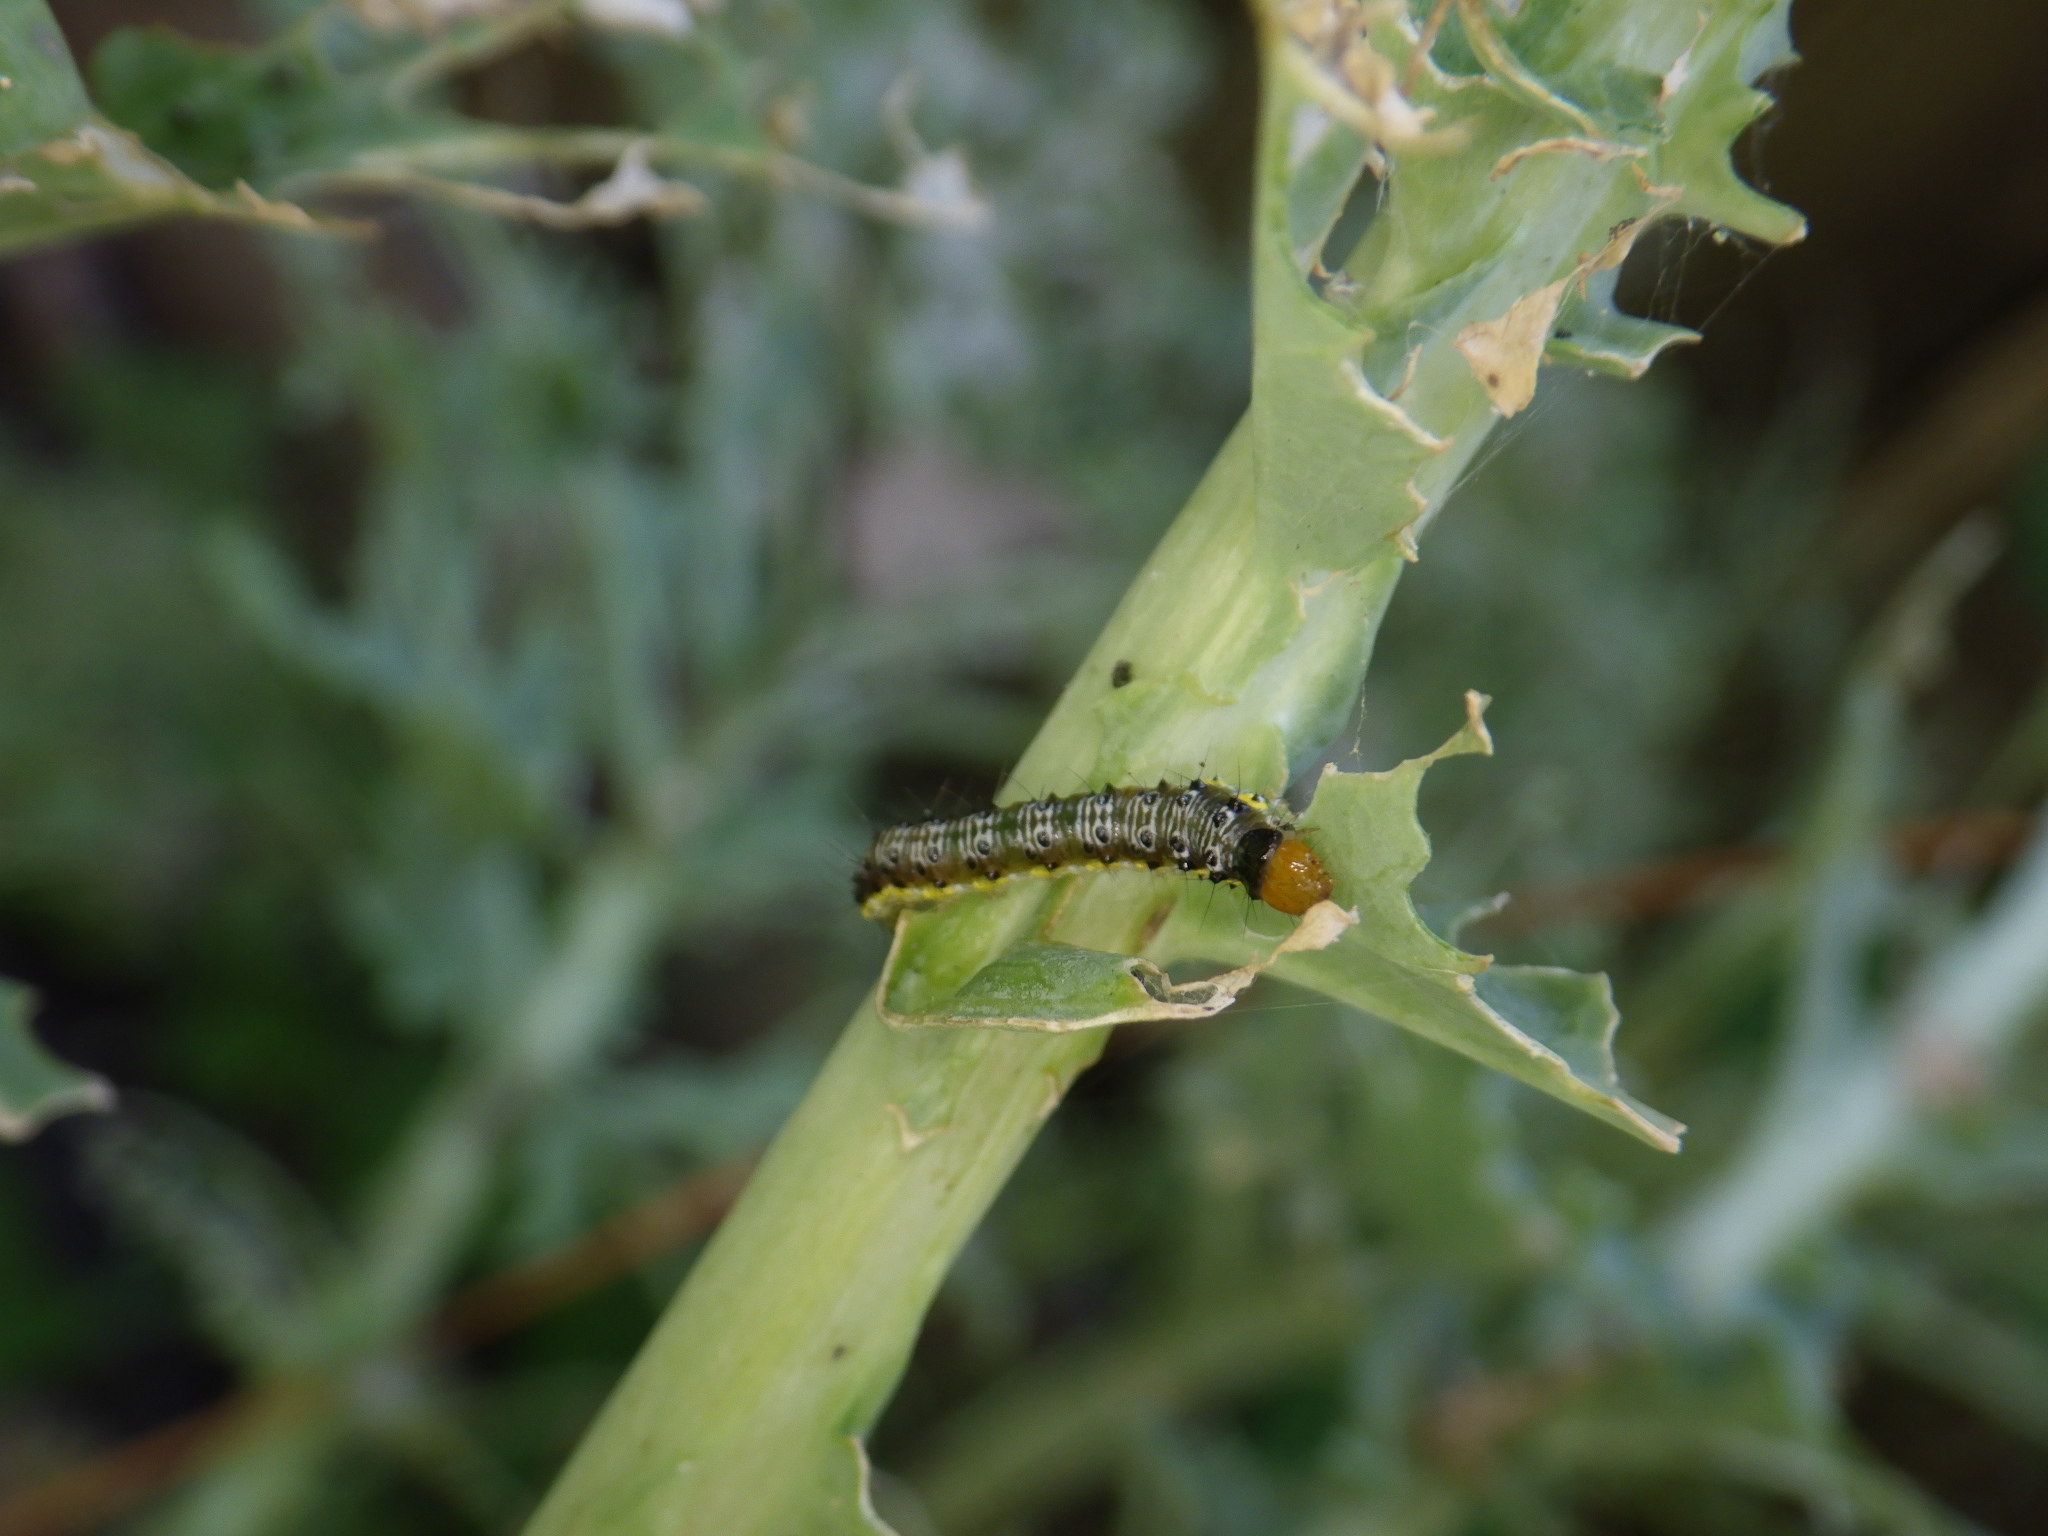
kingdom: Animalia
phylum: Arthropoda
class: Insecta
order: Lepidoptera
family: Crambidae
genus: Evergestis
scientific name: Evergestis rimosalis
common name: Cross-striped cabbageworm moth
